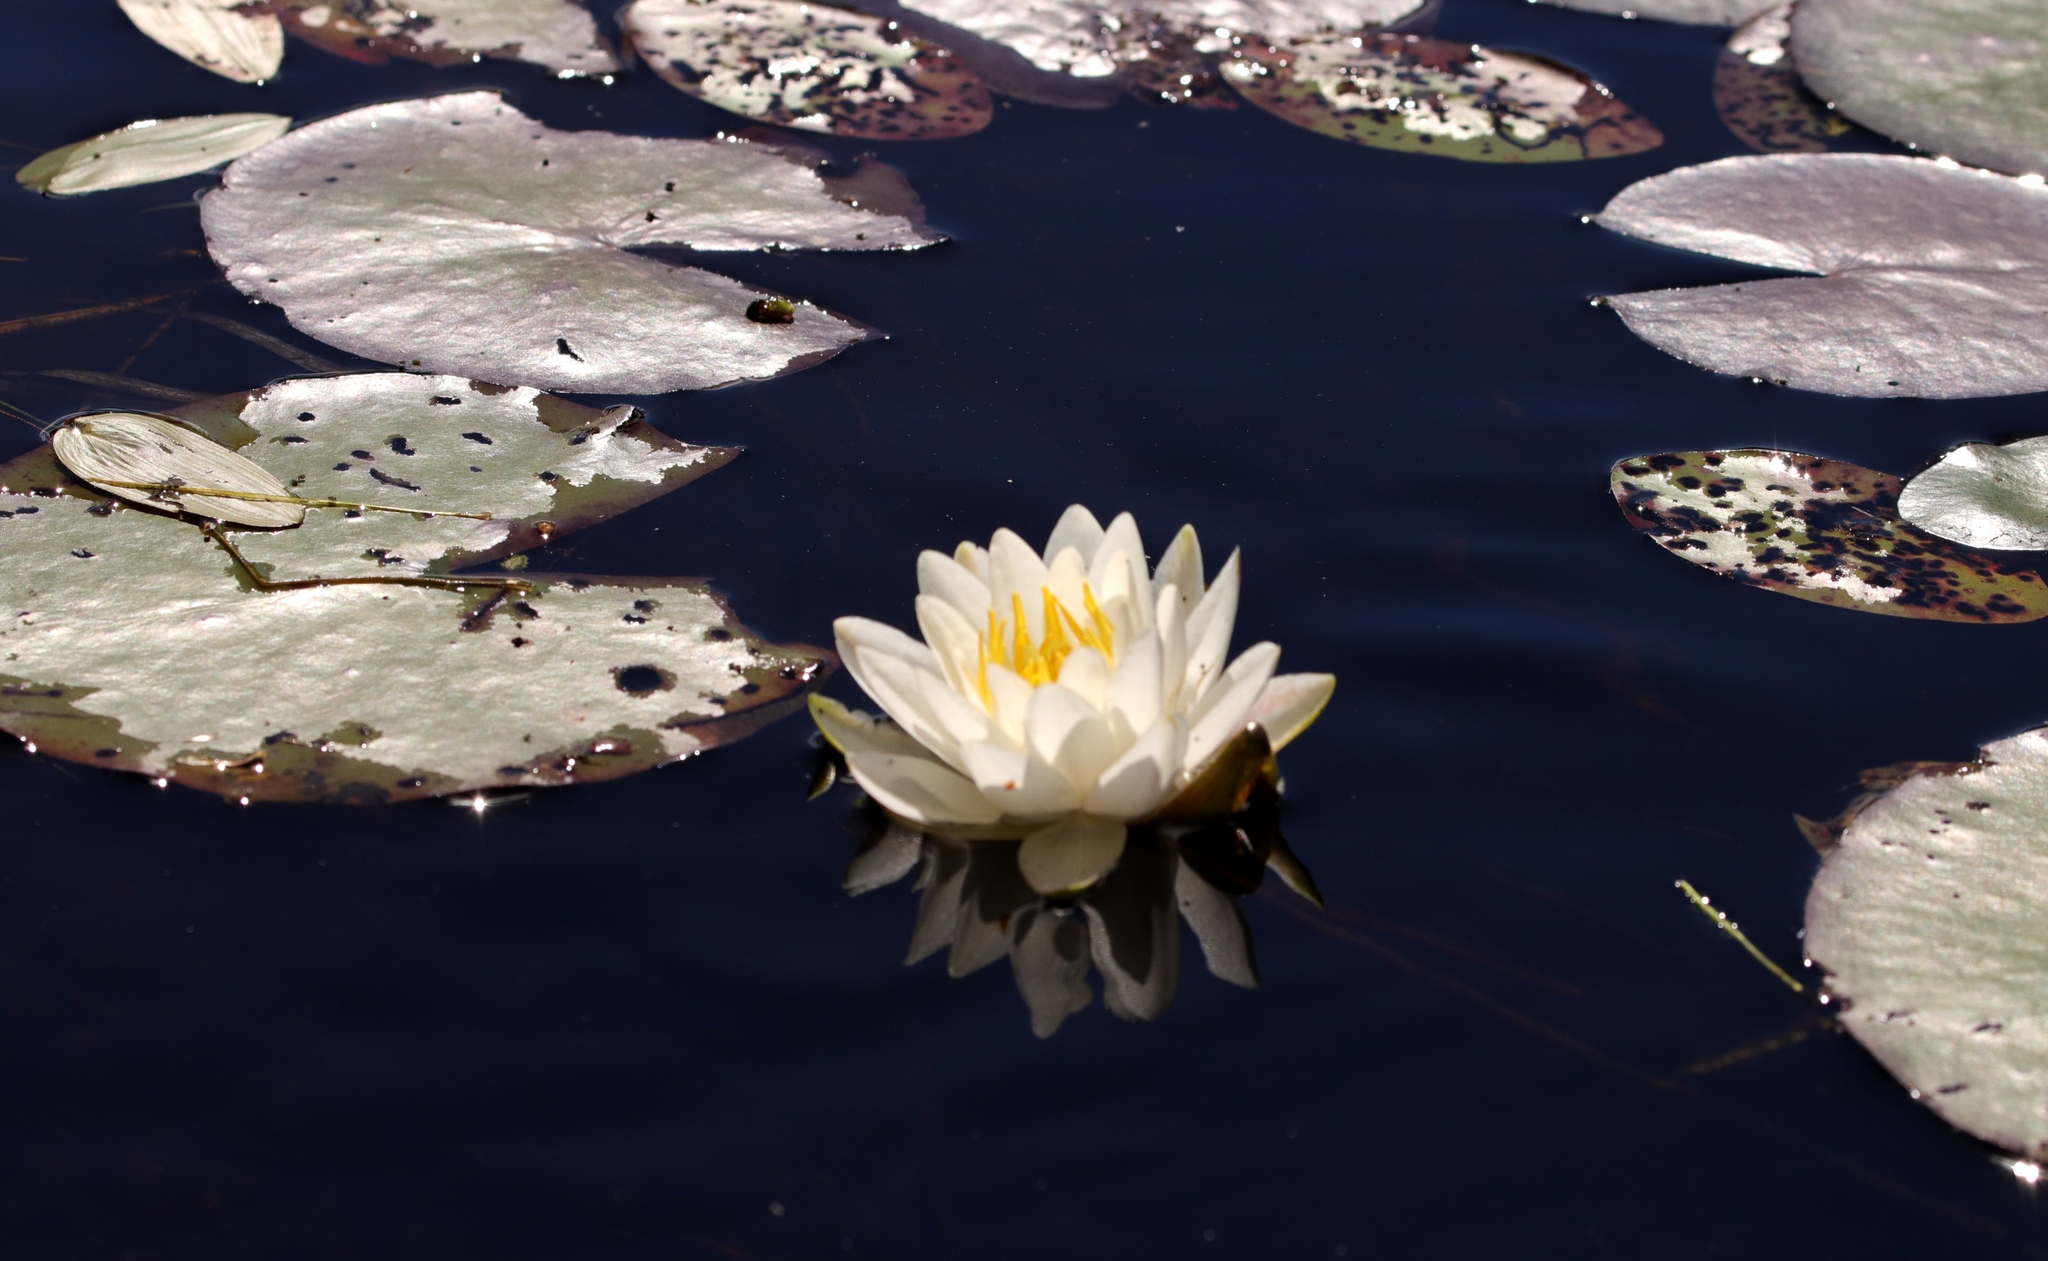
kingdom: Plantae
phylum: Tracheophyta
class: Magnoliopsida
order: Nymphaeales
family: Nymphaeaceae
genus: Nymphaea
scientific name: Nymphaea odorata
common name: Fragrant water-lily
